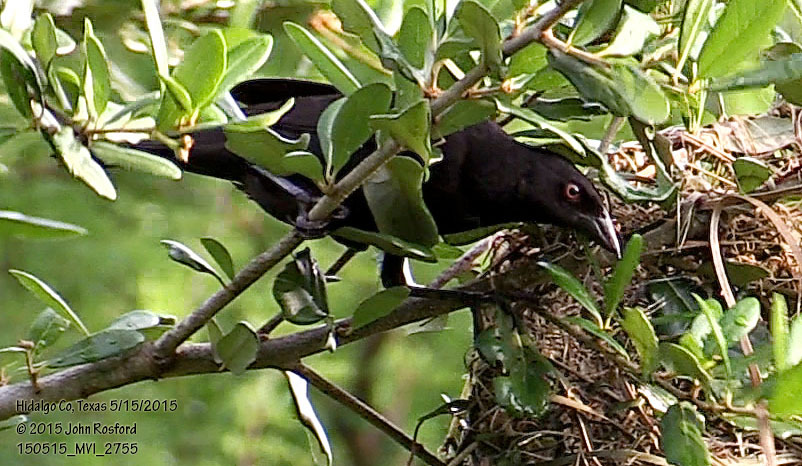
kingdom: Animalia
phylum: Chordata
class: Aves
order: Passeriformes
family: Icteridae
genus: Molothrus
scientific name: Molothrus aeneus
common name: Bronzed cowbird
